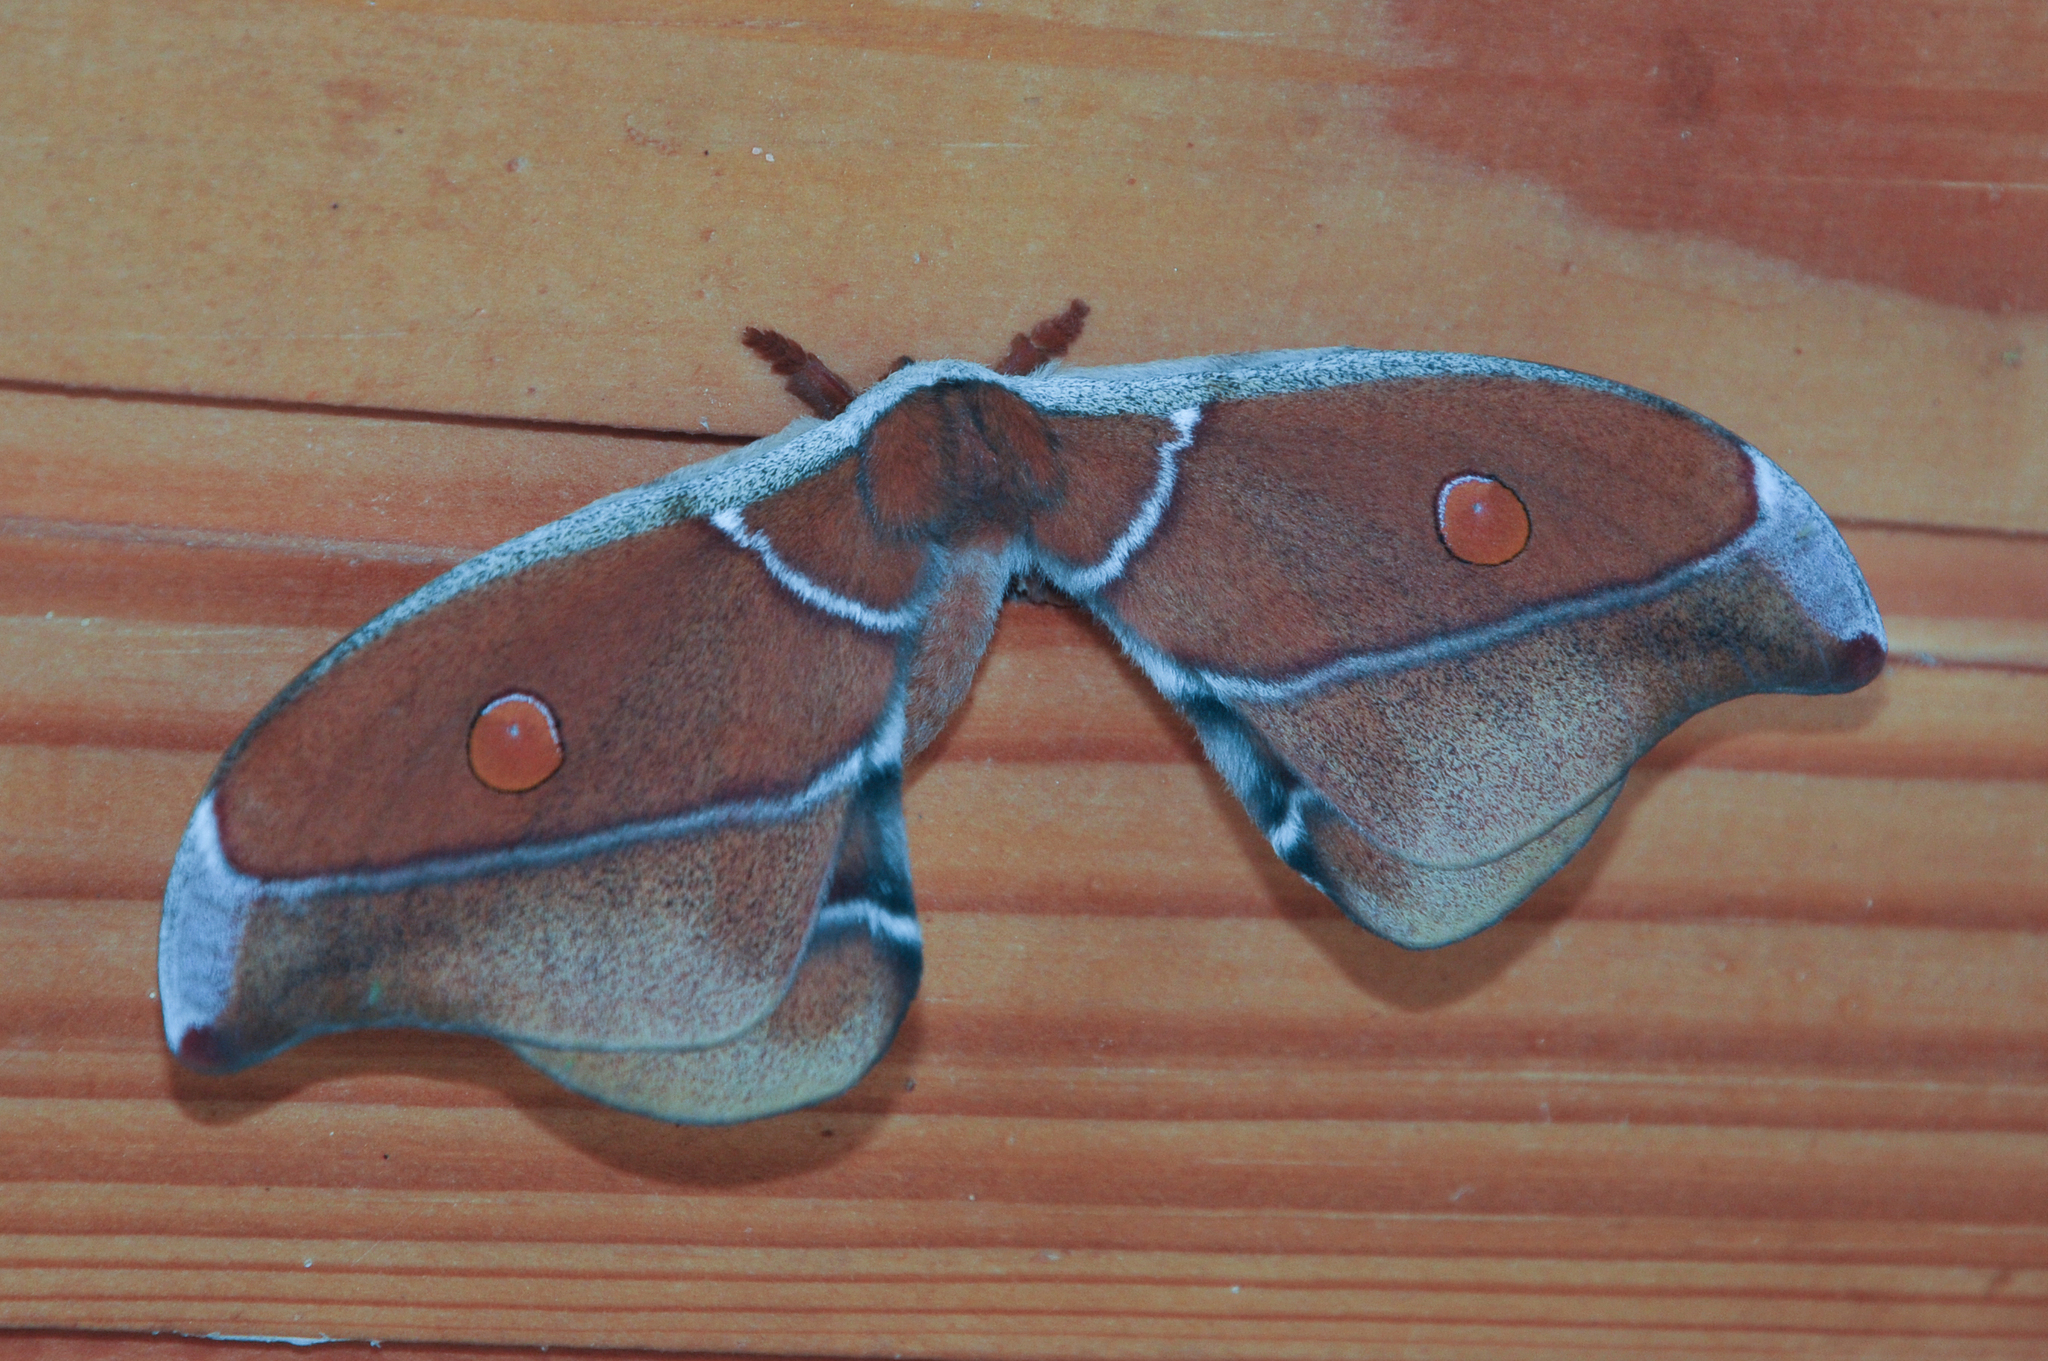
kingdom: Animalia
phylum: Arthropoda
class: Insecta
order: Lepidoptera
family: Saturniidae
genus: Antherina
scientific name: Antherina suraka
